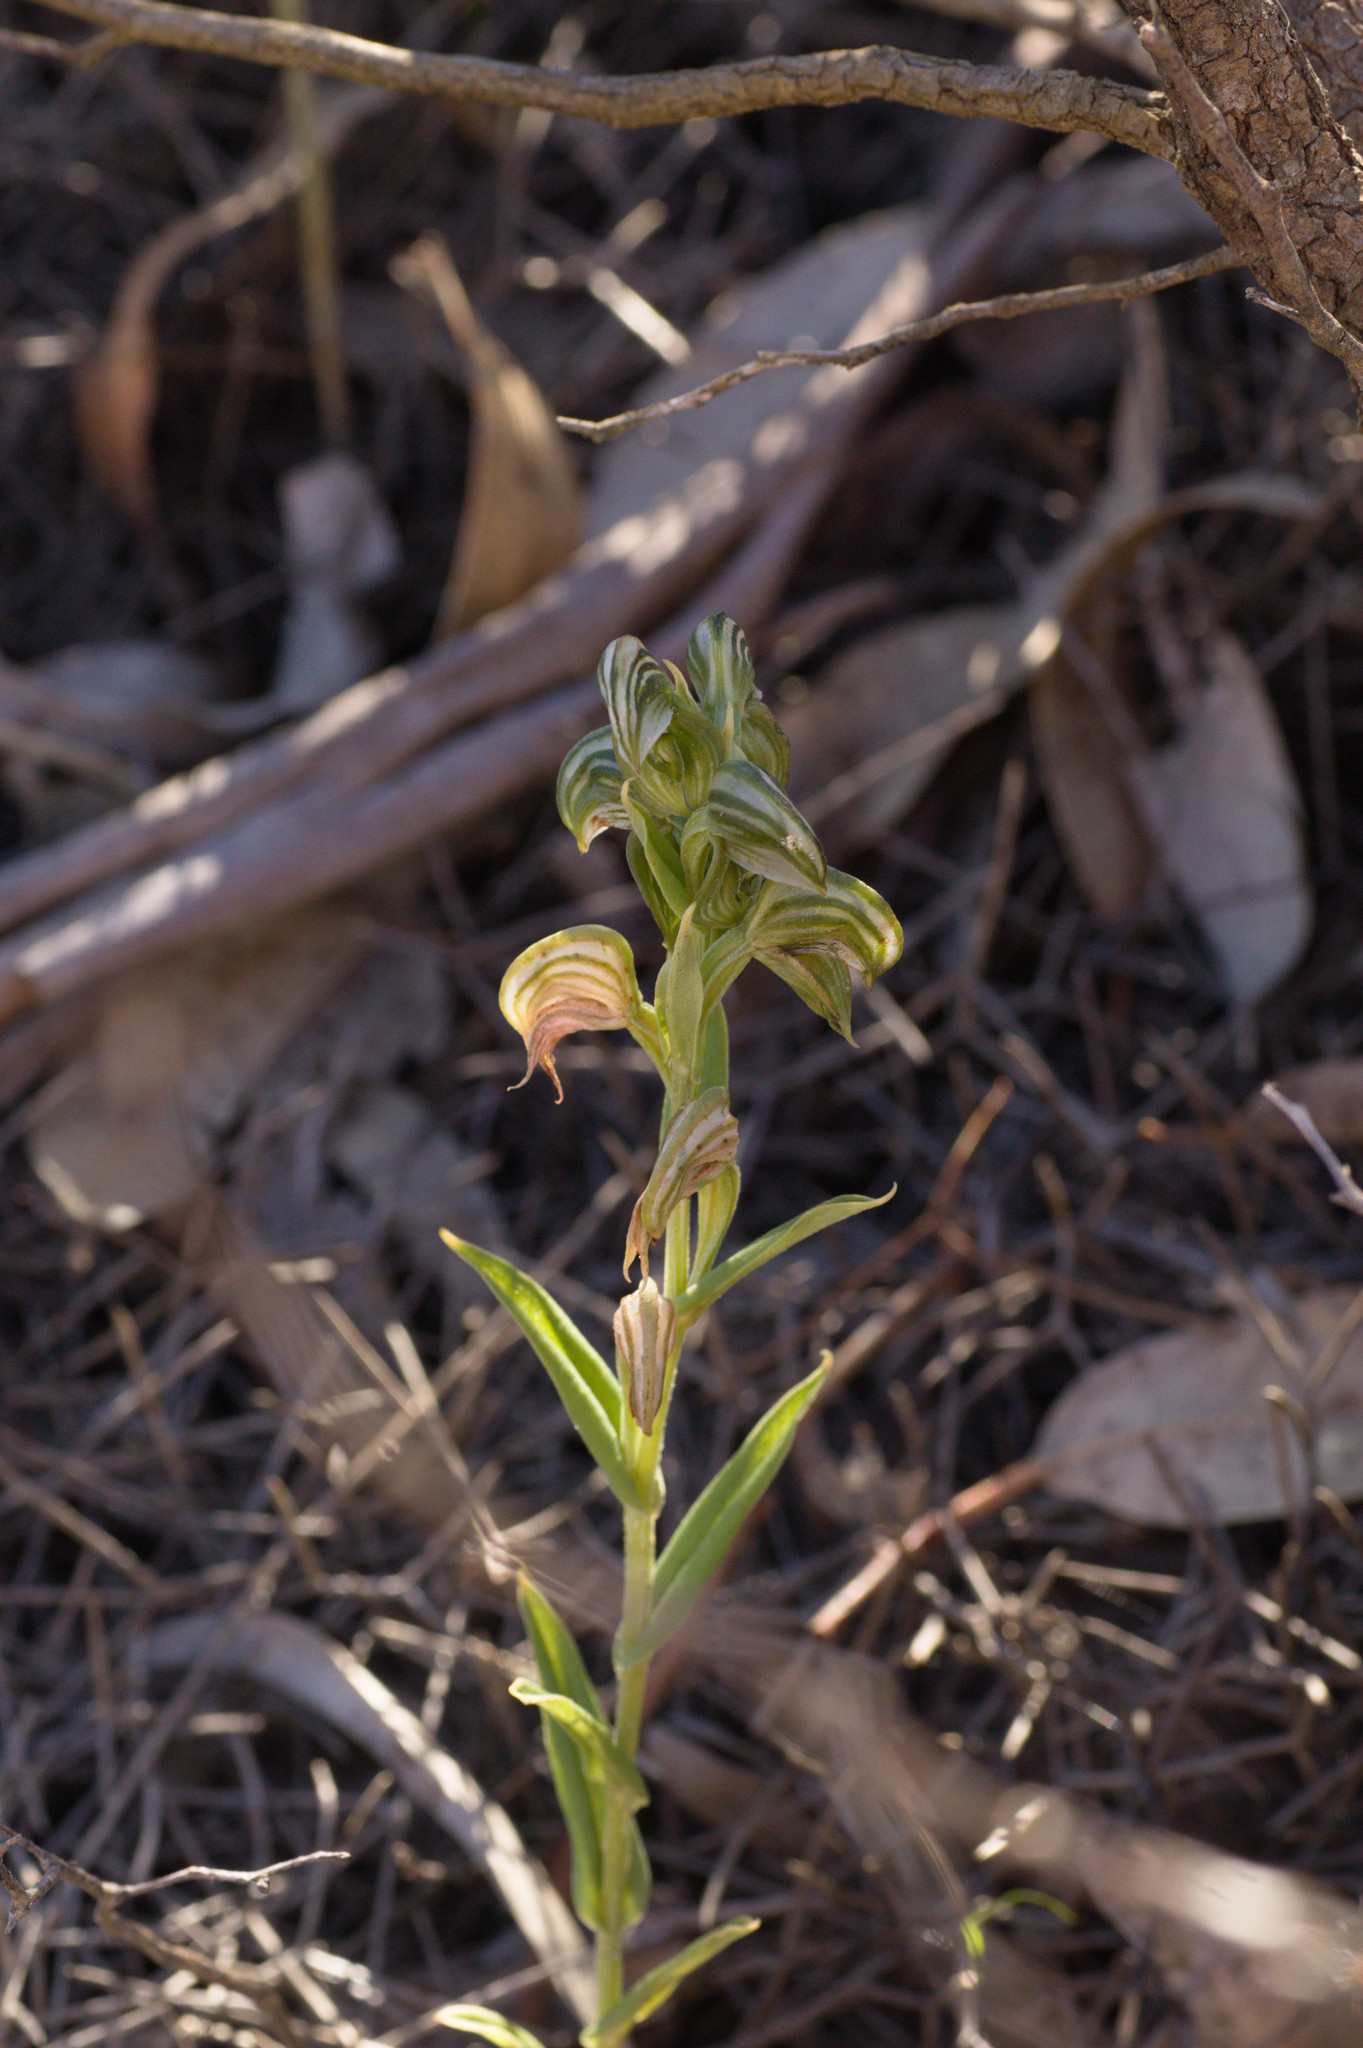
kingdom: Plantae
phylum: Tracheophyta
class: Liliopsida
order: Asparagales
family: Orchidaceae
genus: Pterostylis
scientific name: Pterostylis vittata
